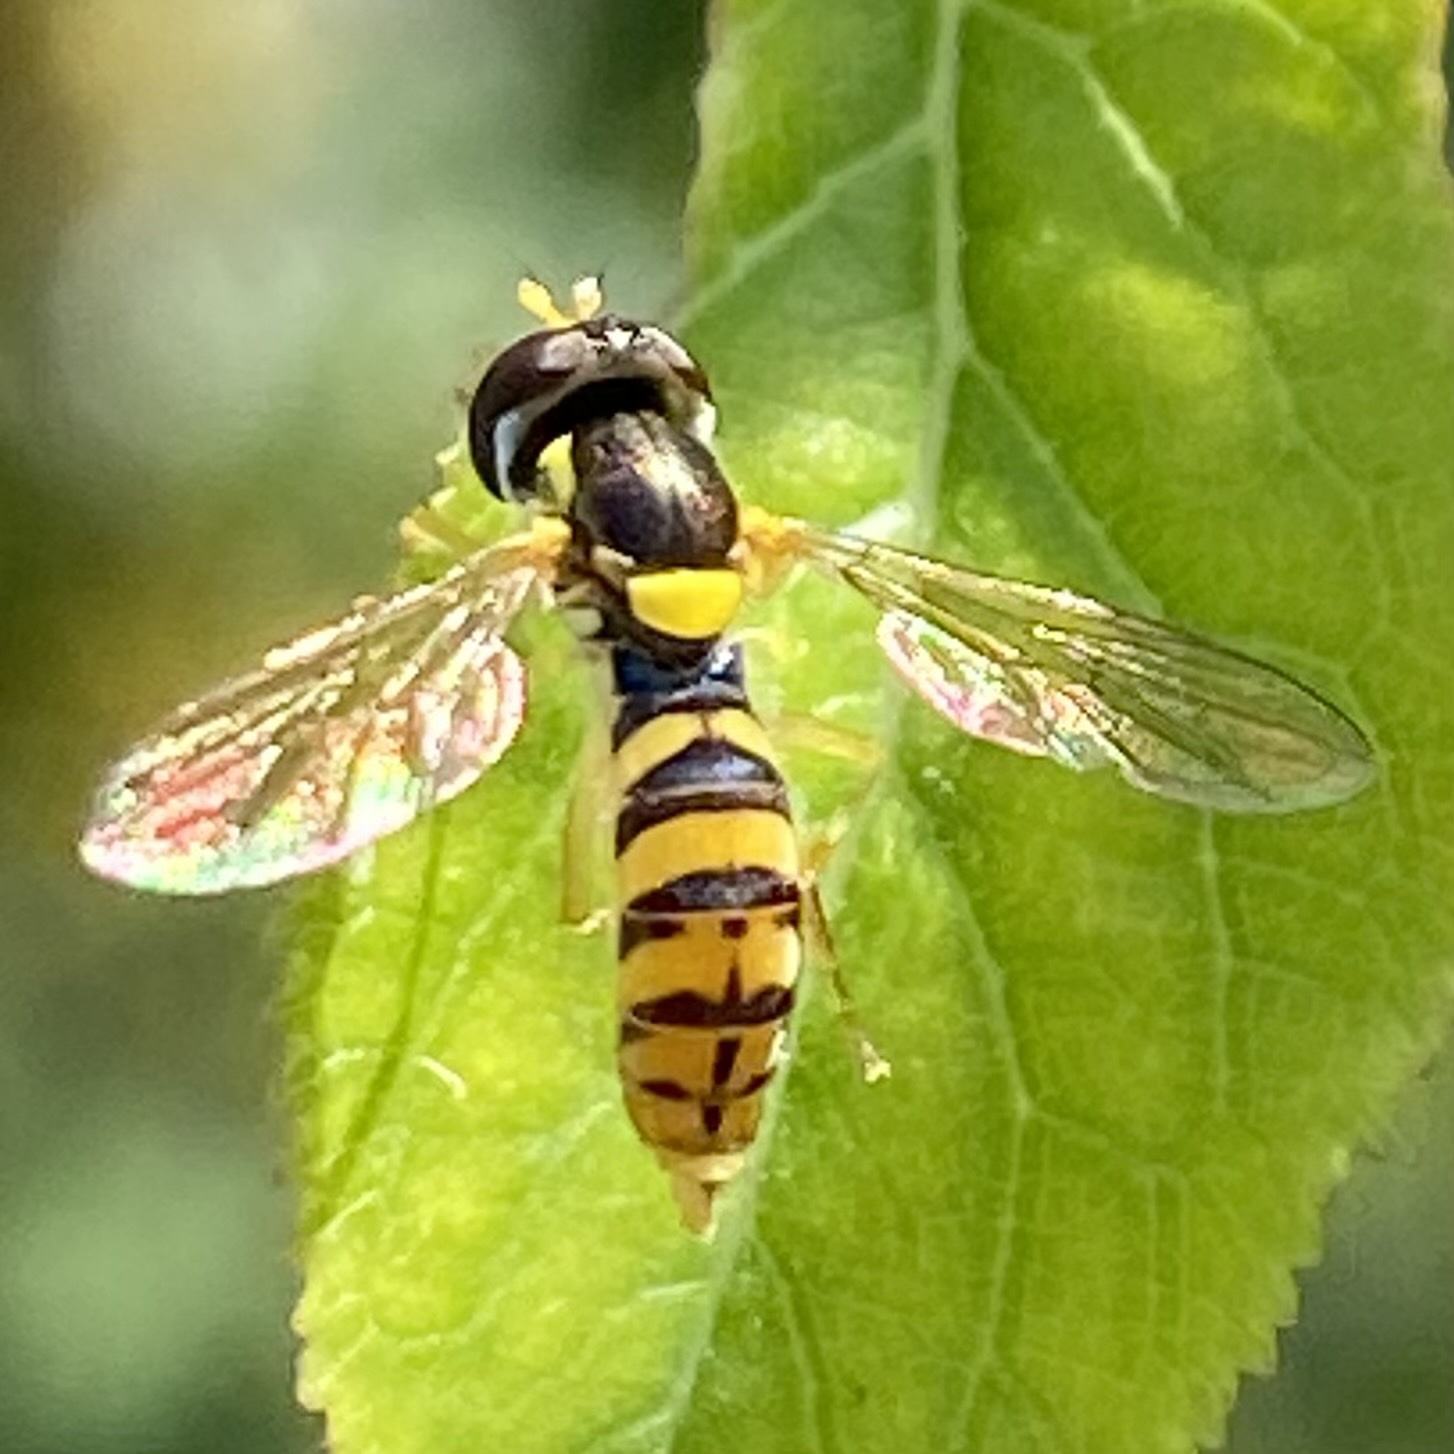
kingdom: Animalia
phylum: Arthropoda
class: Insecta
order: Diptera
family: Syrphidae
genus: Sphaerophoria
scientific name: Sphaerophoria rueppellii
